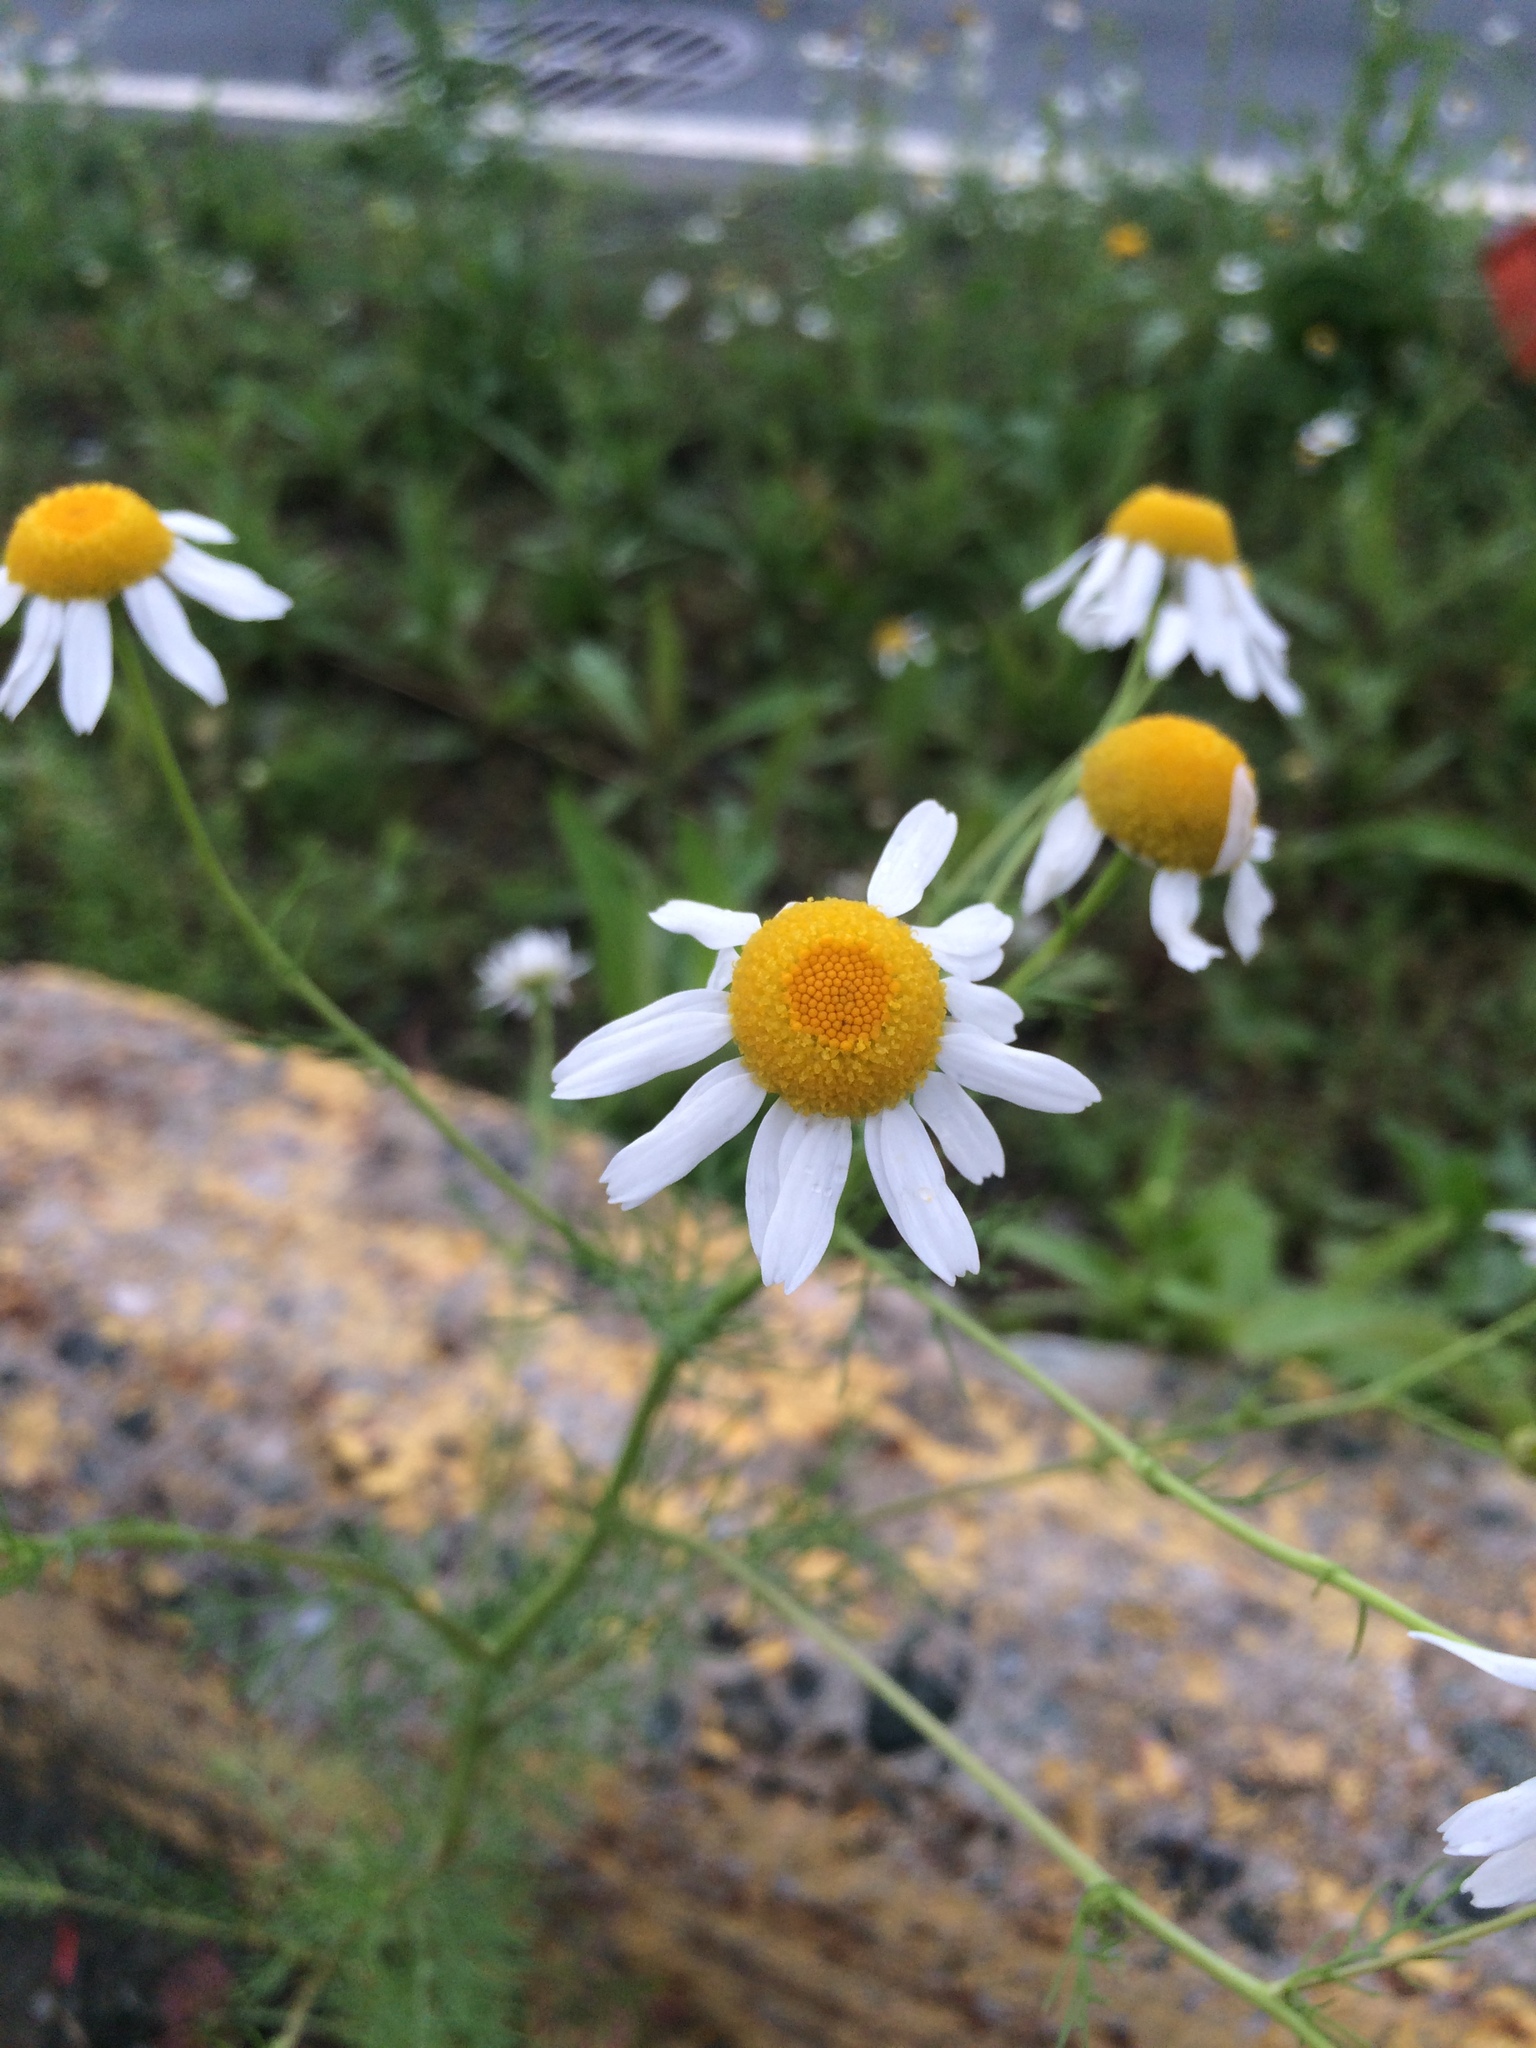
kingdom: Plantae
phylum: Tracheophyta
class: Magnoliopsida
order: Asterales
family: Asteraceae
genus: Tripleurospermum
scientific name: Tripleurospermum inodorum
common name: Scentless mayweed
